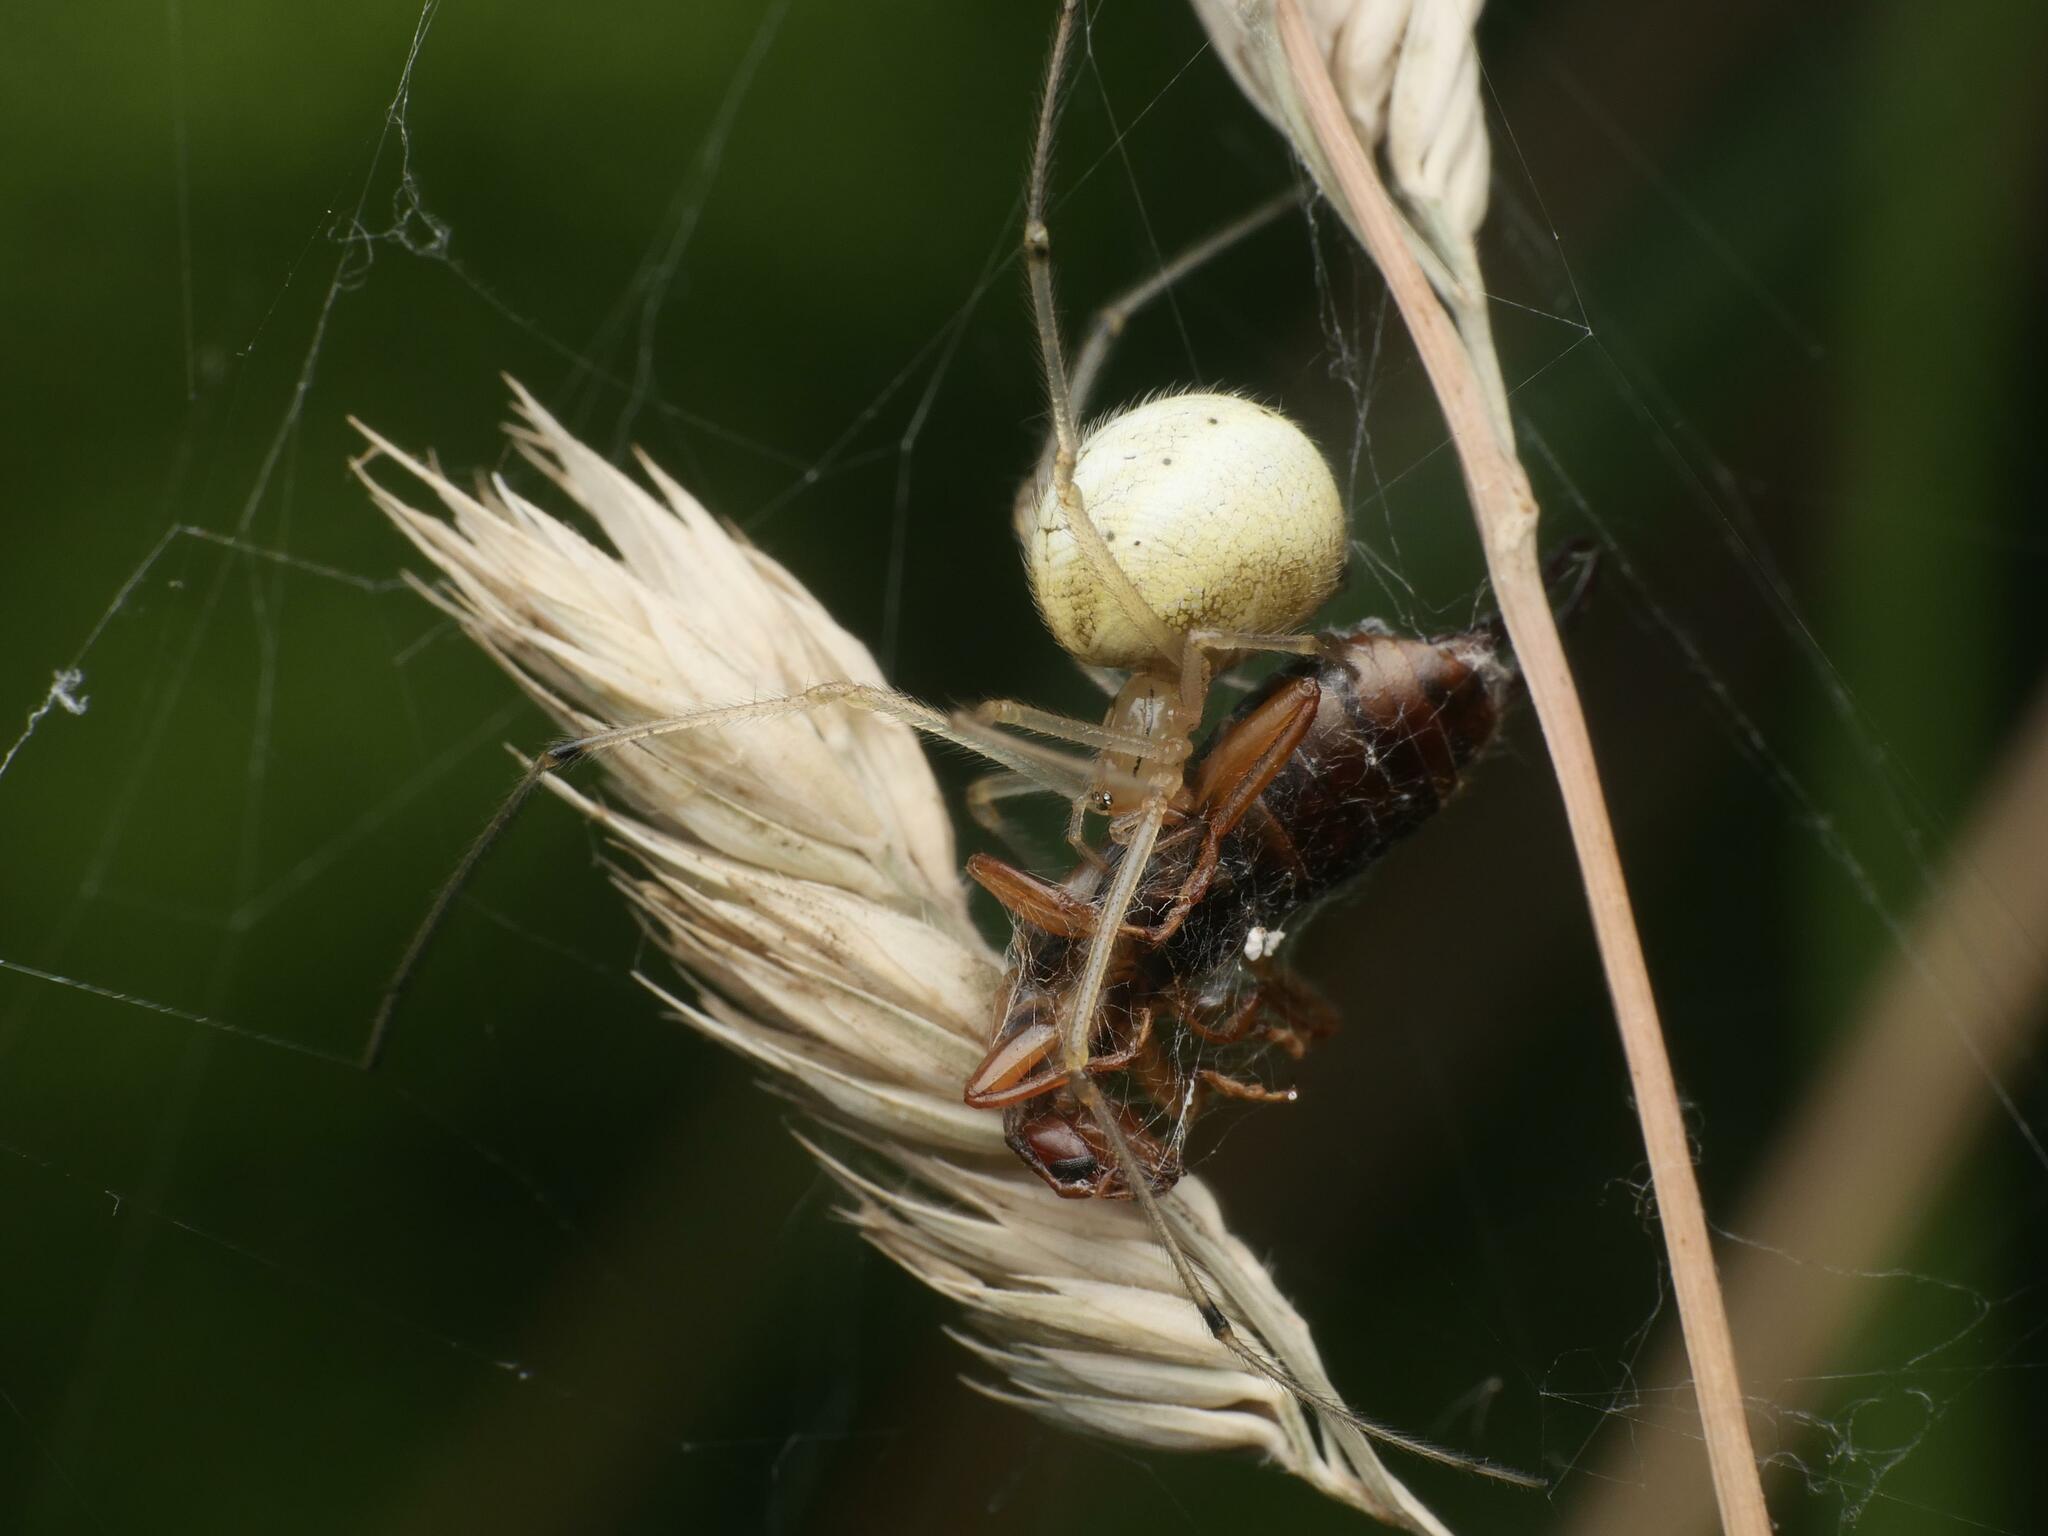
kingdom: Animalia
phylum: Arthropoda
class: Arachnida
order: Araneae
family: Theridiidae
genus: Enoplognatha
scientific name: Enoplognatha
